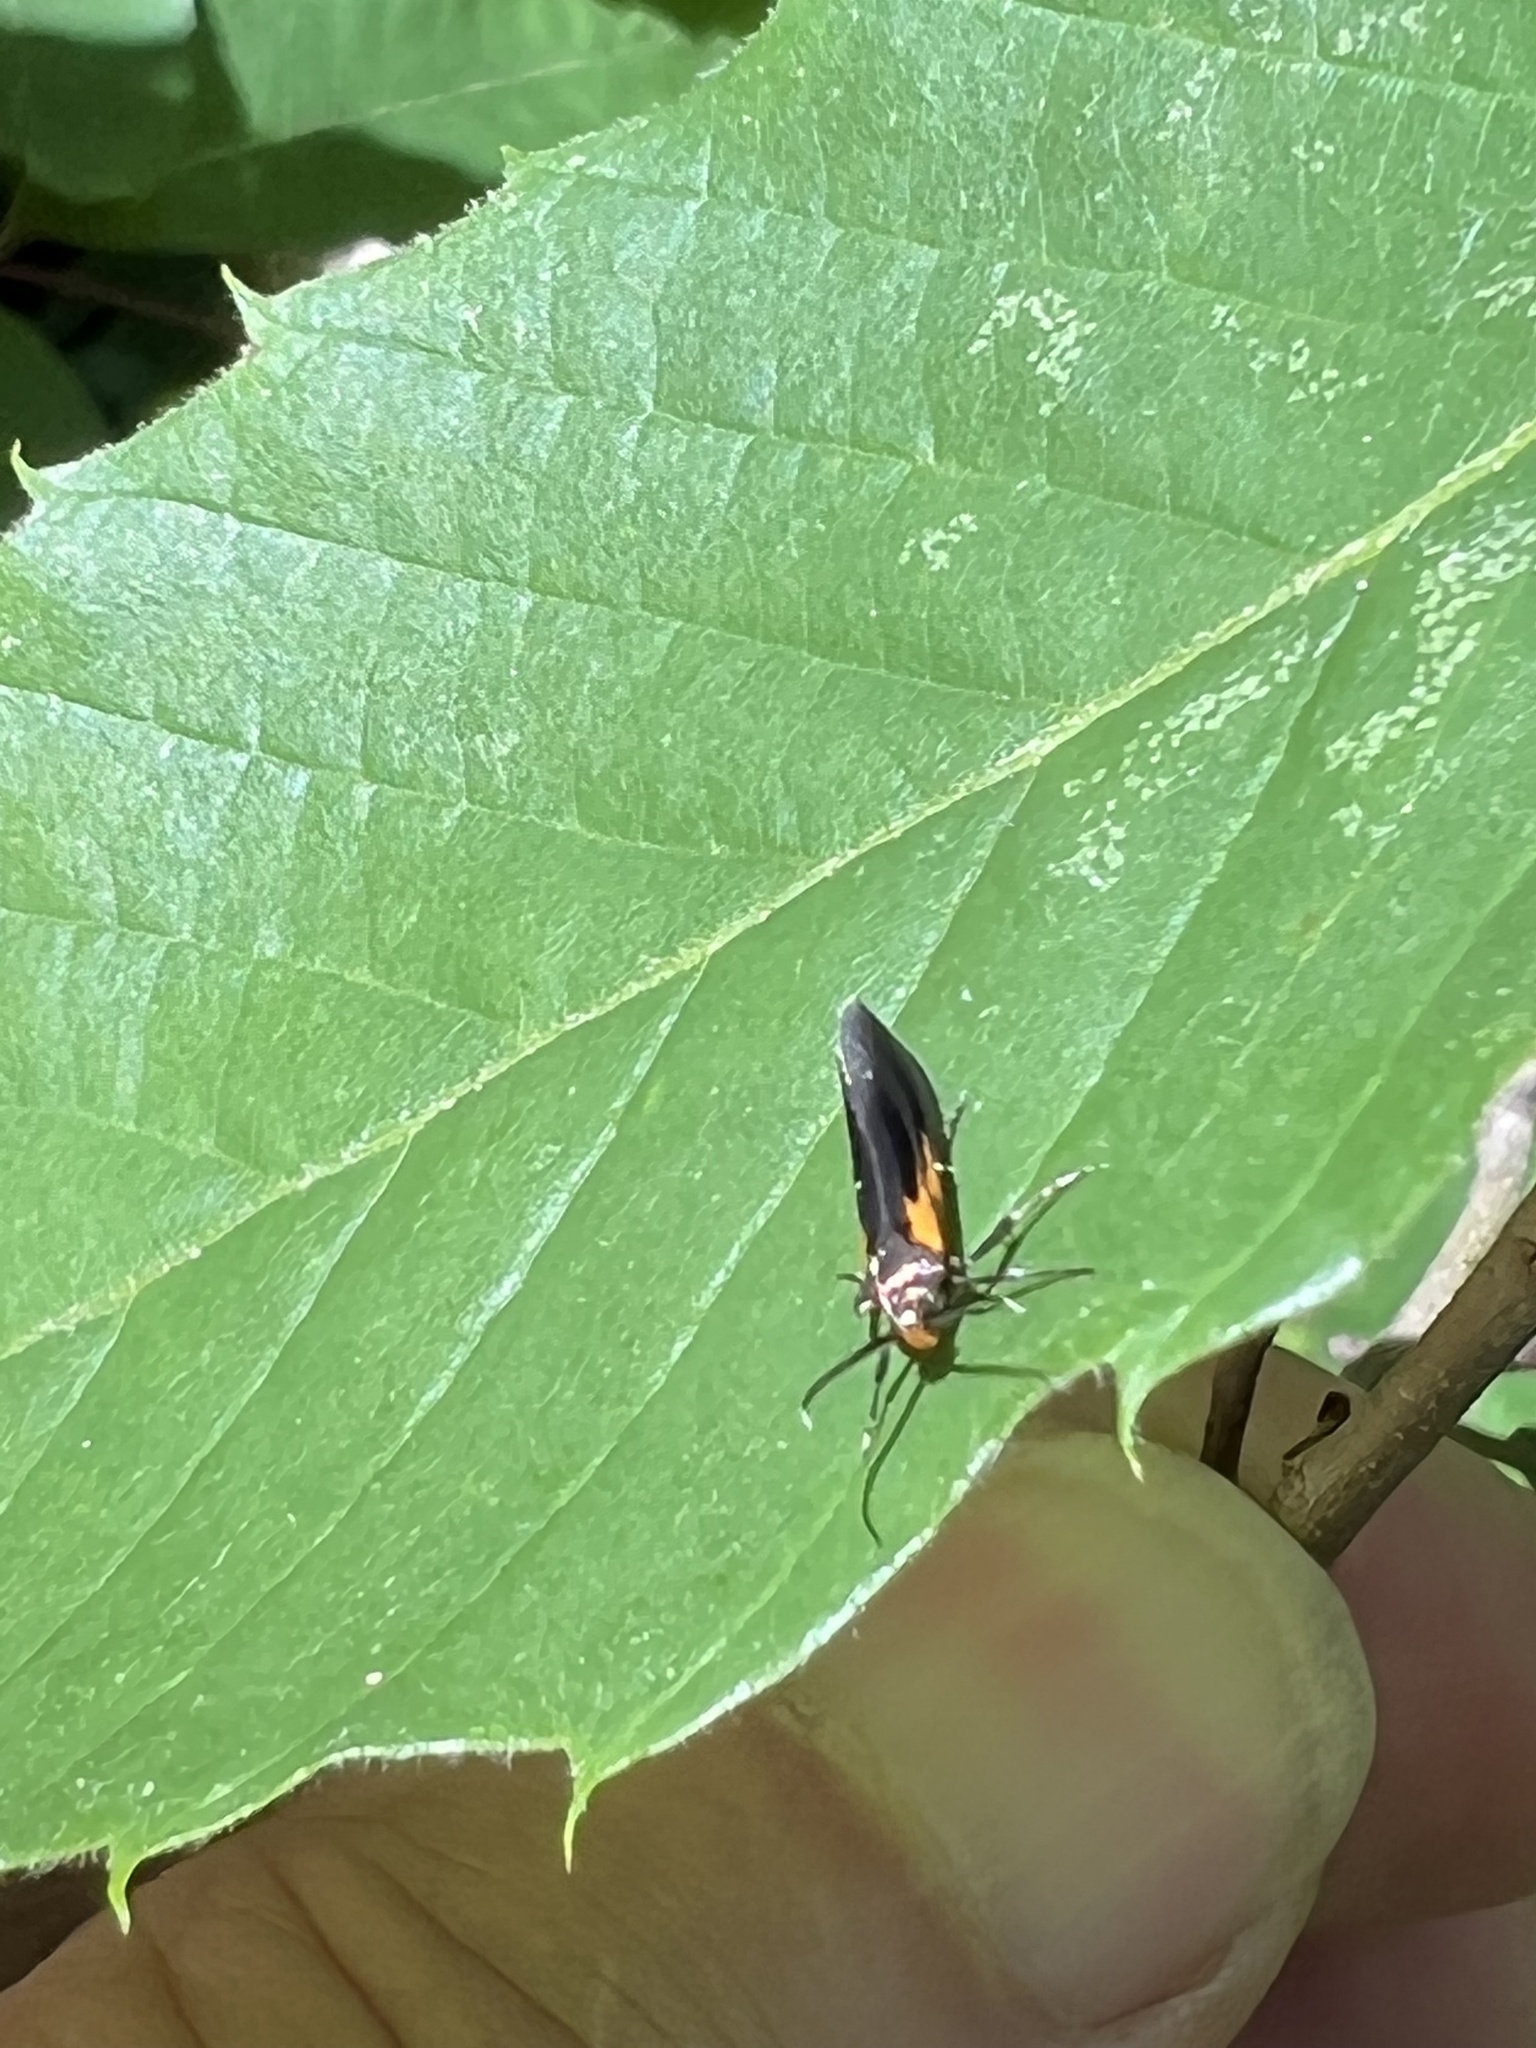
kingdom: Animalia
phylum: Arthropoda
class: Insecta
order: Lepidoptera
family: Oecophoridae
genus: Mathildana
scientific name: Mathildana newmanella
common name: Newman's mathildana moth
